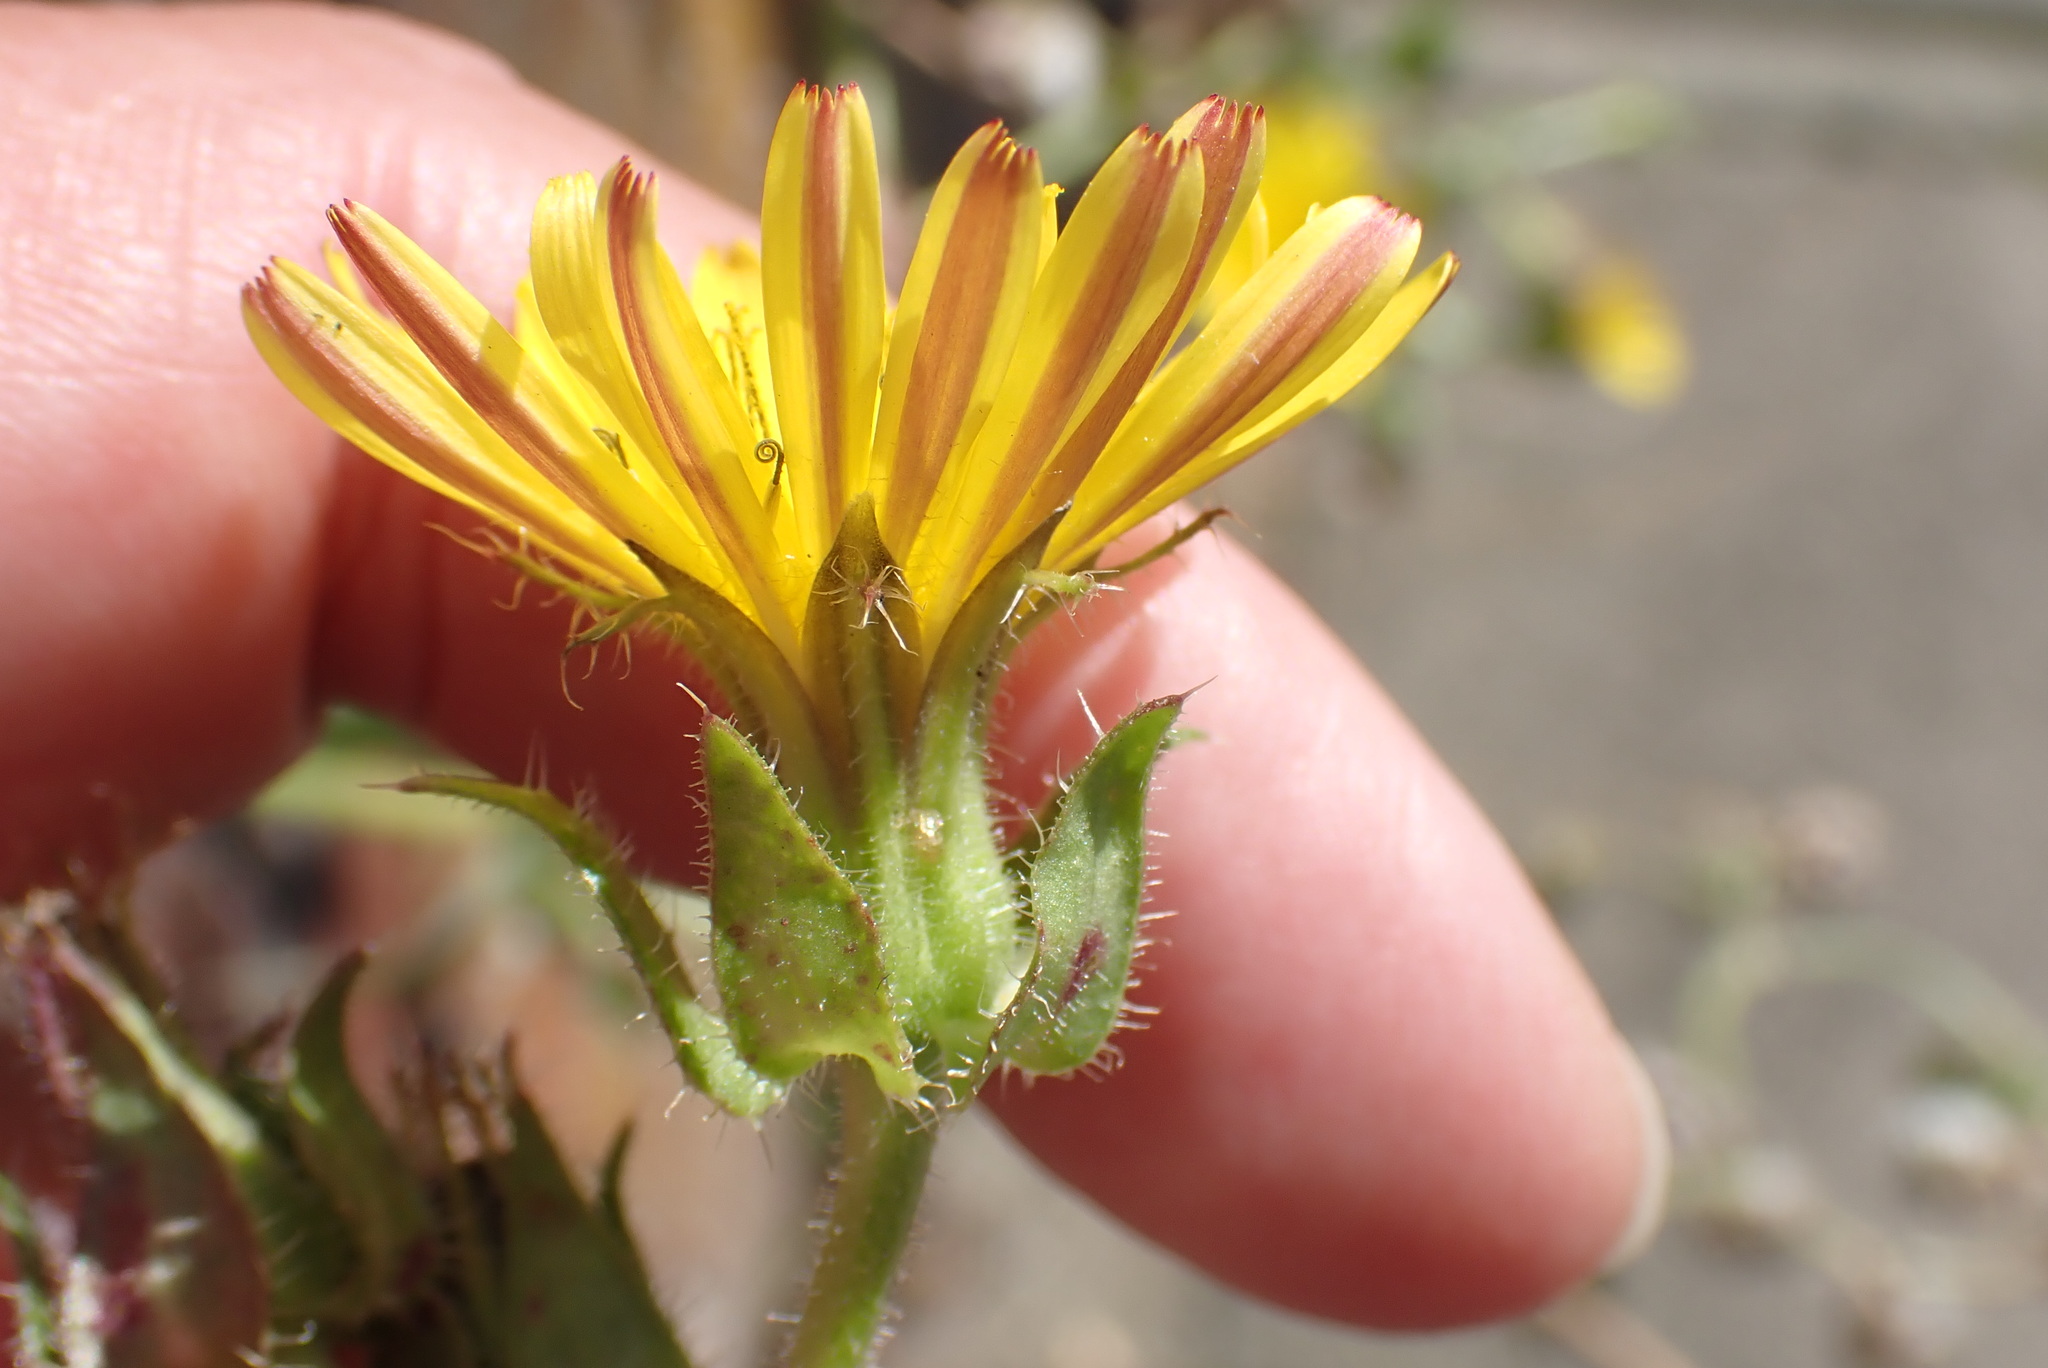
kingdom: Plantae
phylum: Tracheophyta
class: Magnoliopsida
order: Asterales
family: Asteraceae
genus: Helminthotheca
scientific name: Helminthotheca echioides
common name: Ox-tongue
